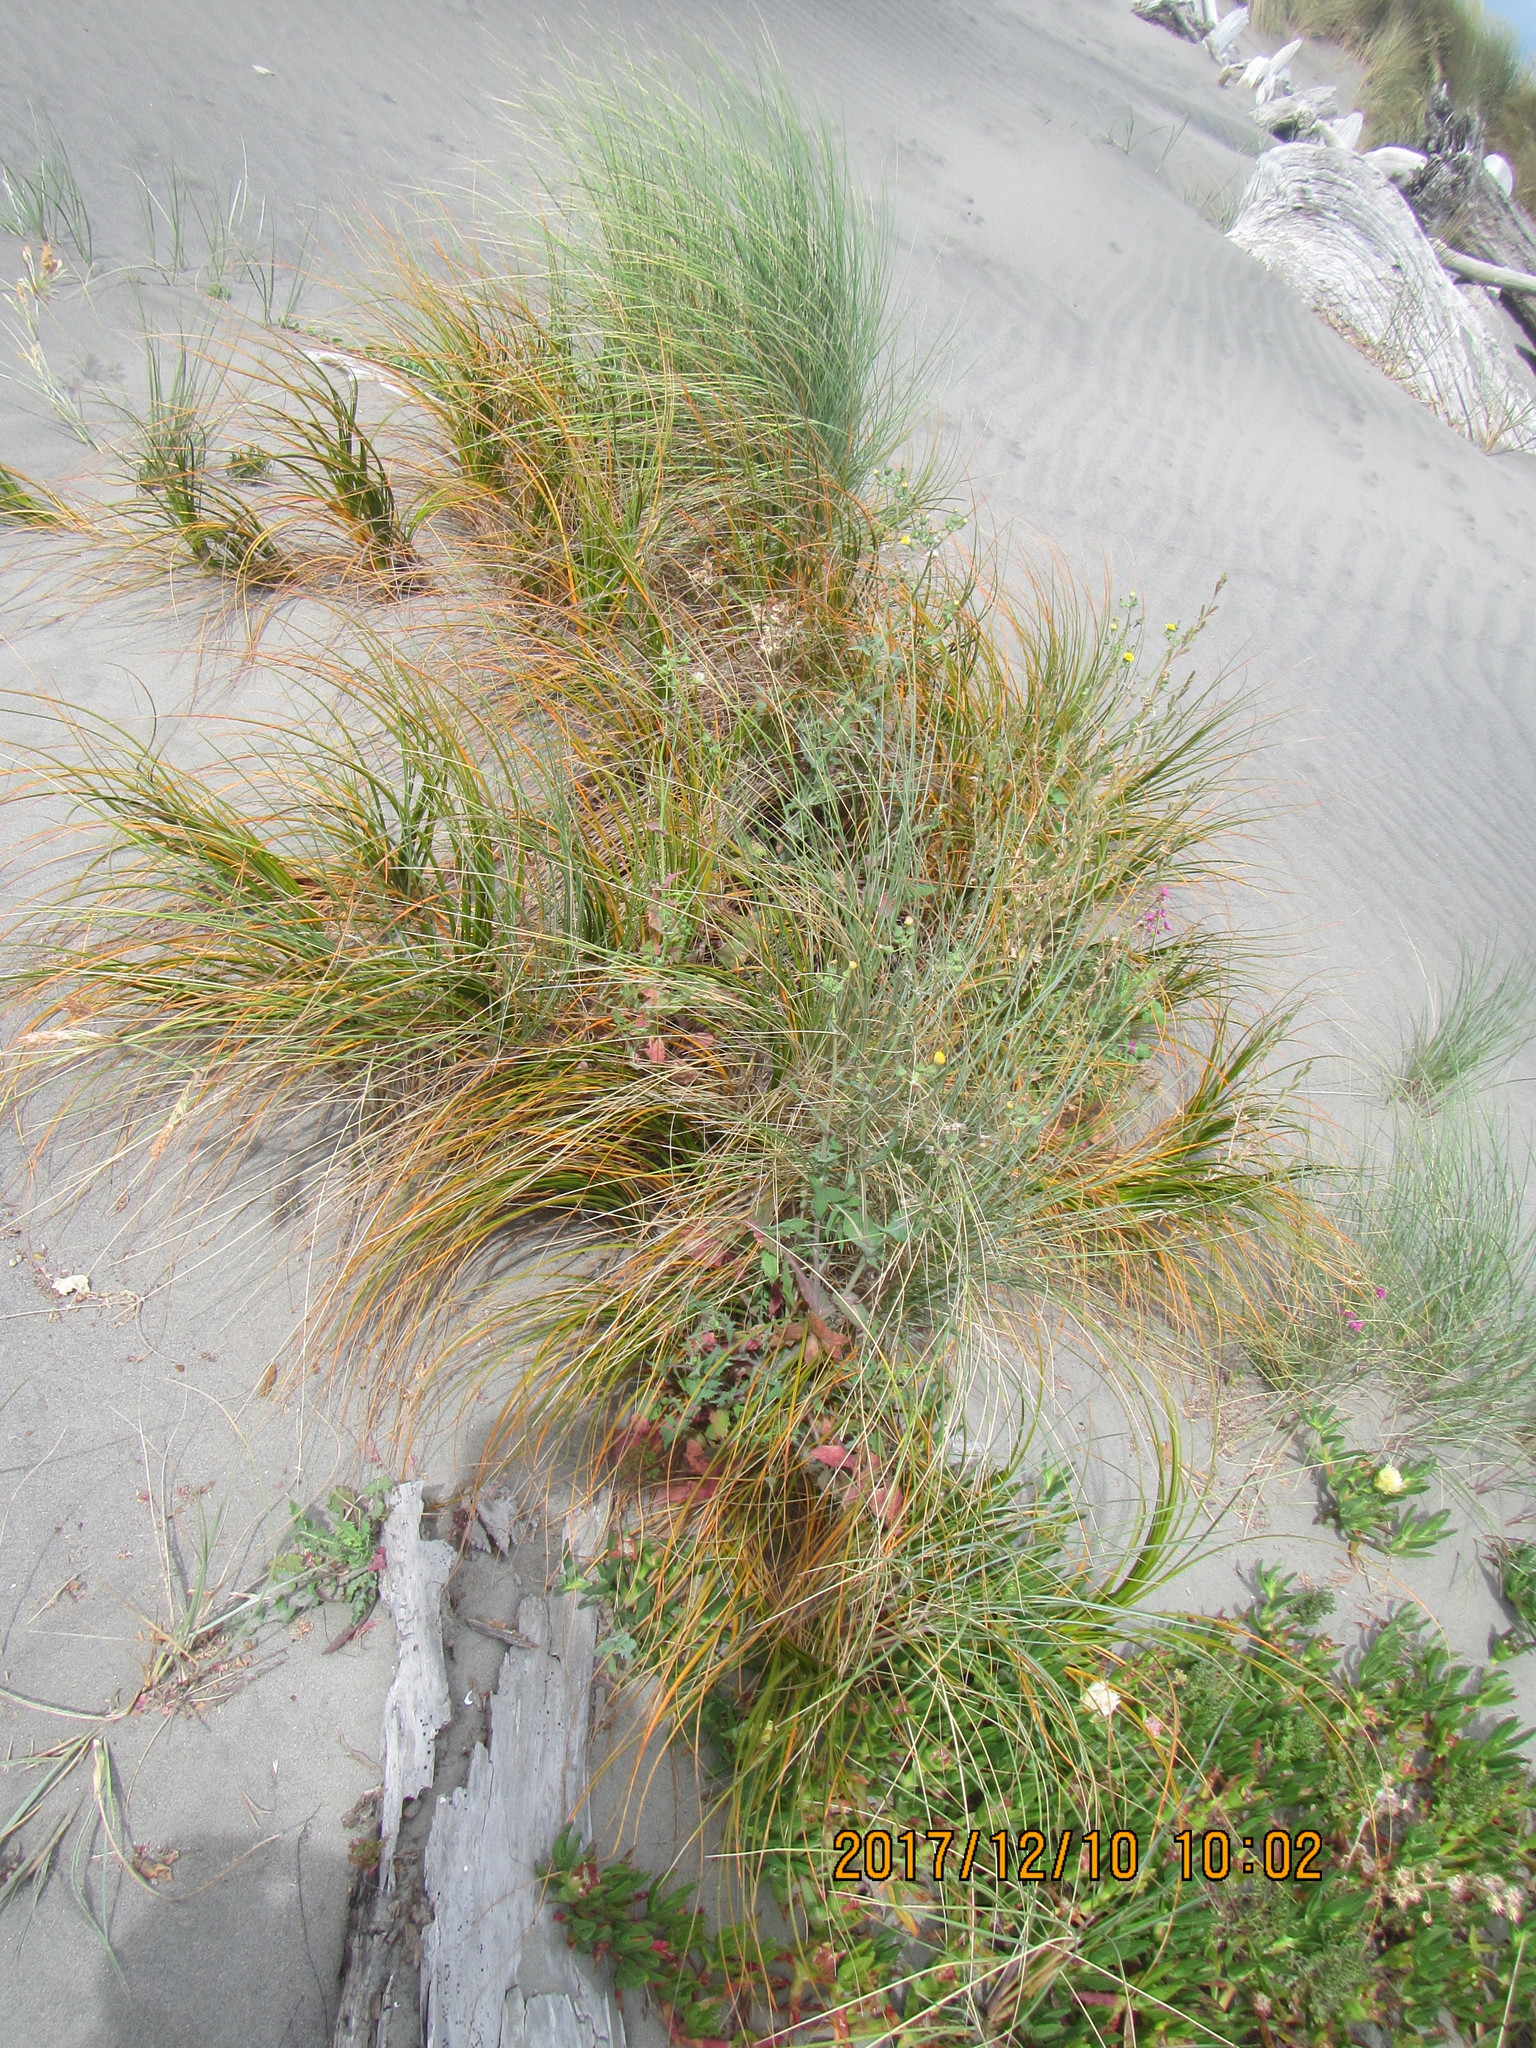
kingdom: Plantae
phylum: Tracheophyta
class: Liliopsida
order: Poales
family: Cyperaceae
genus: Ficinia
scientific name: Ficinia spiralis
